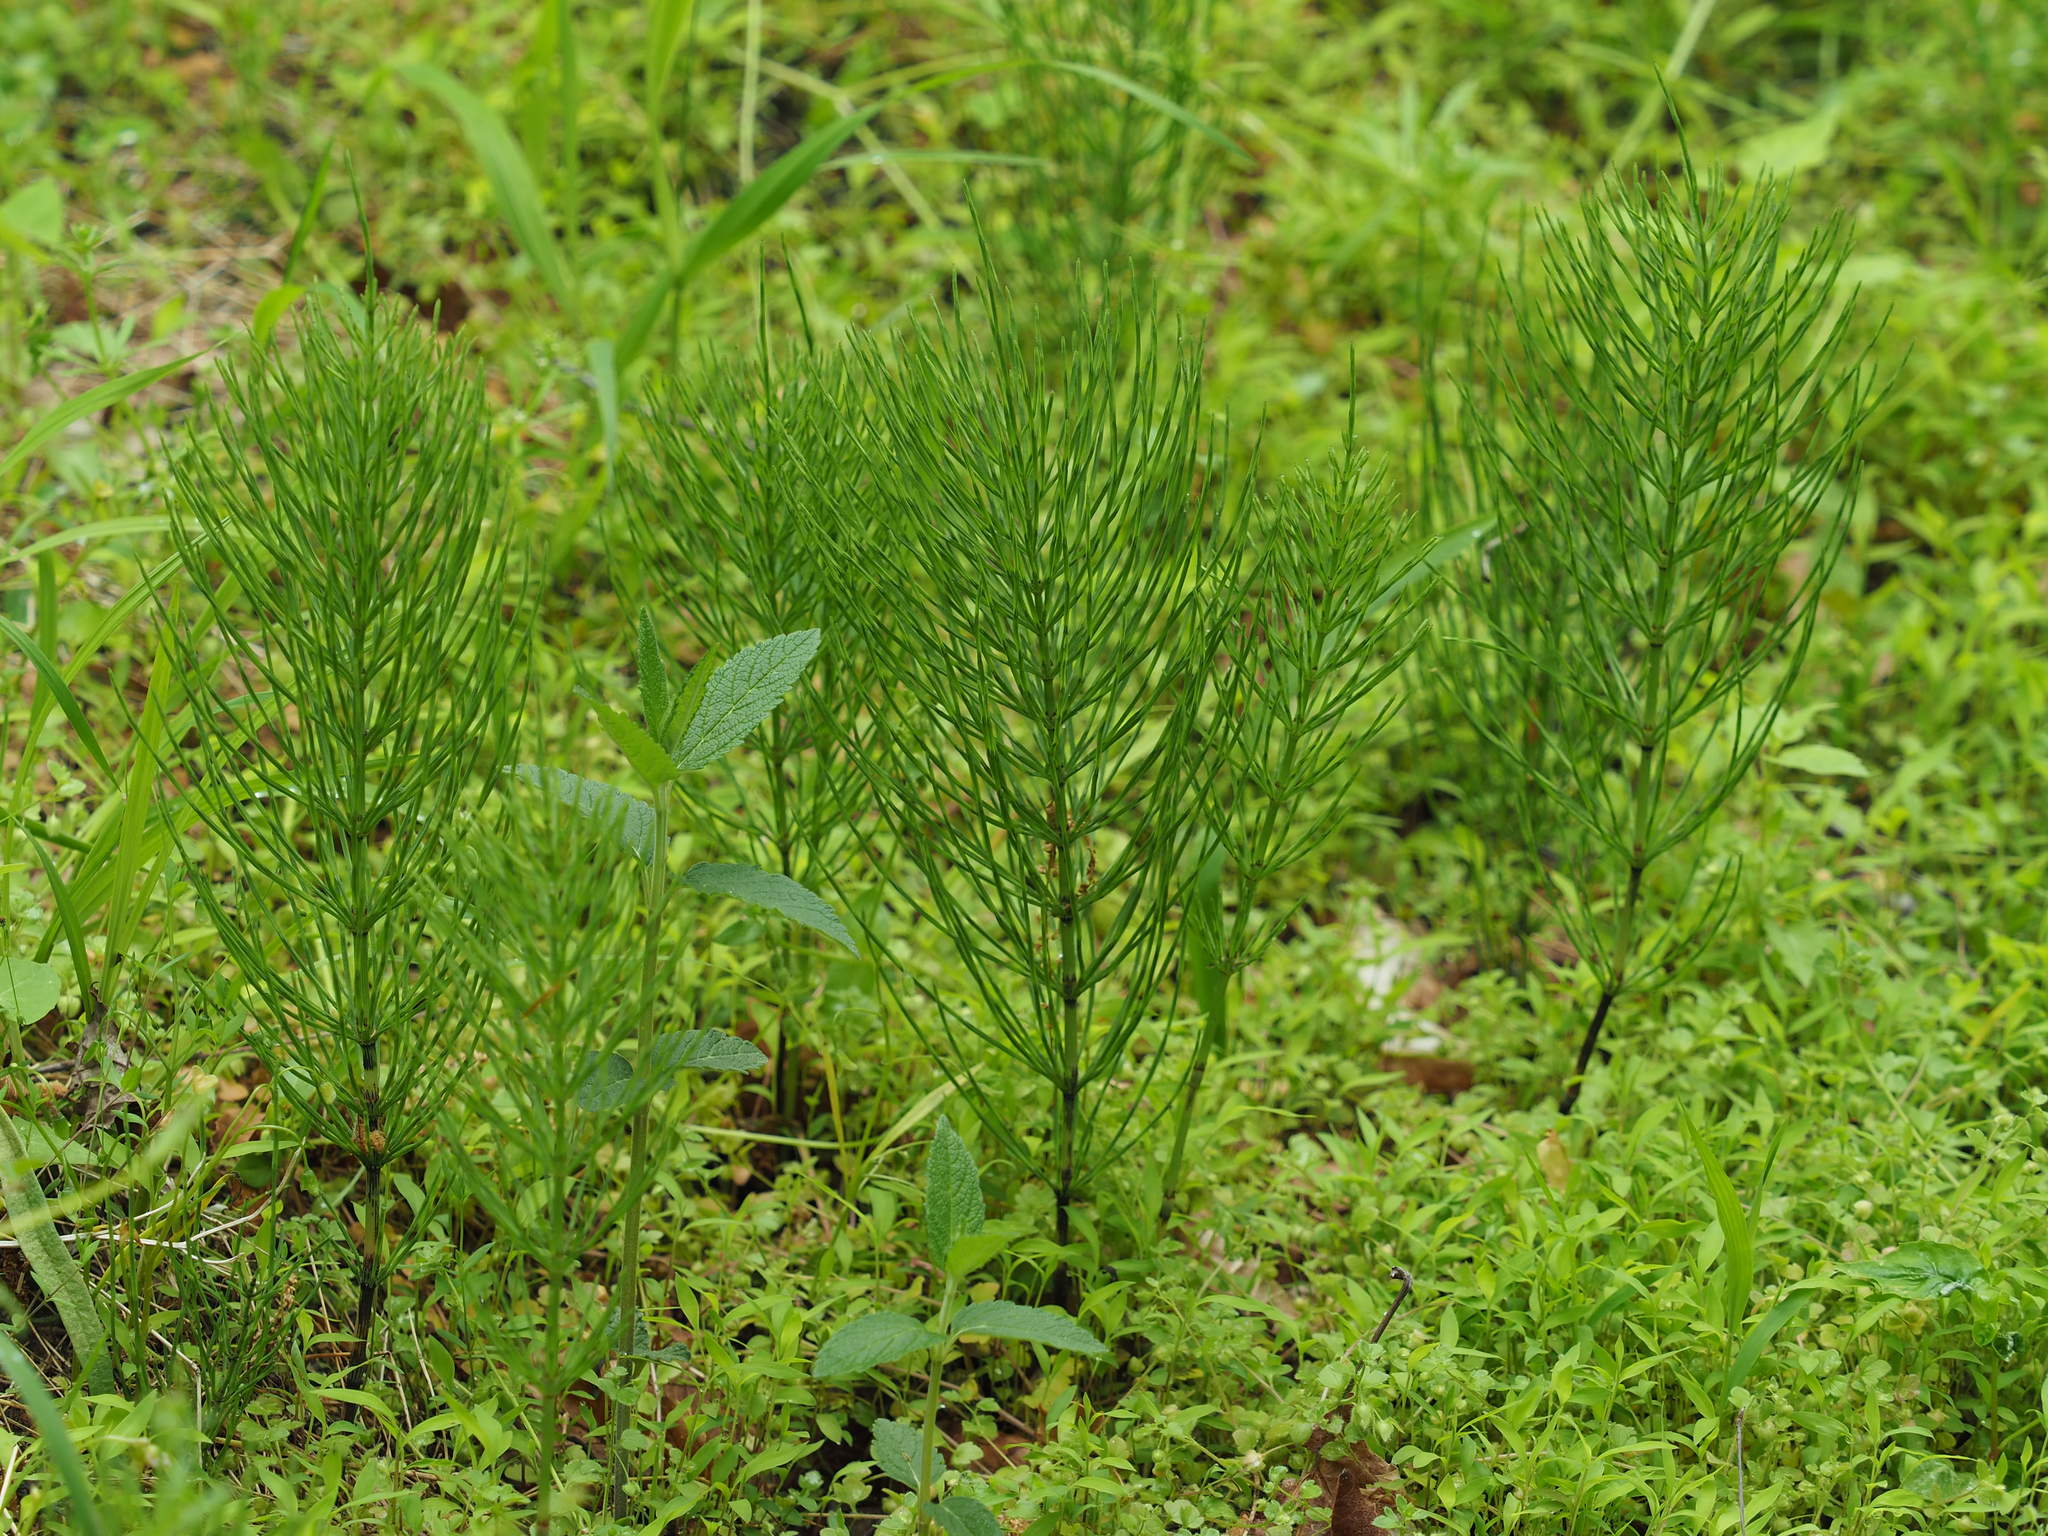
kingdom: Plantae
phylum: Tracheophyta
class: Polypodiopsida
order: Equisetales
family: Equisetaceae
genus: Equisetum
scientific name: Equisetum arvense
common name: Field horsetail
